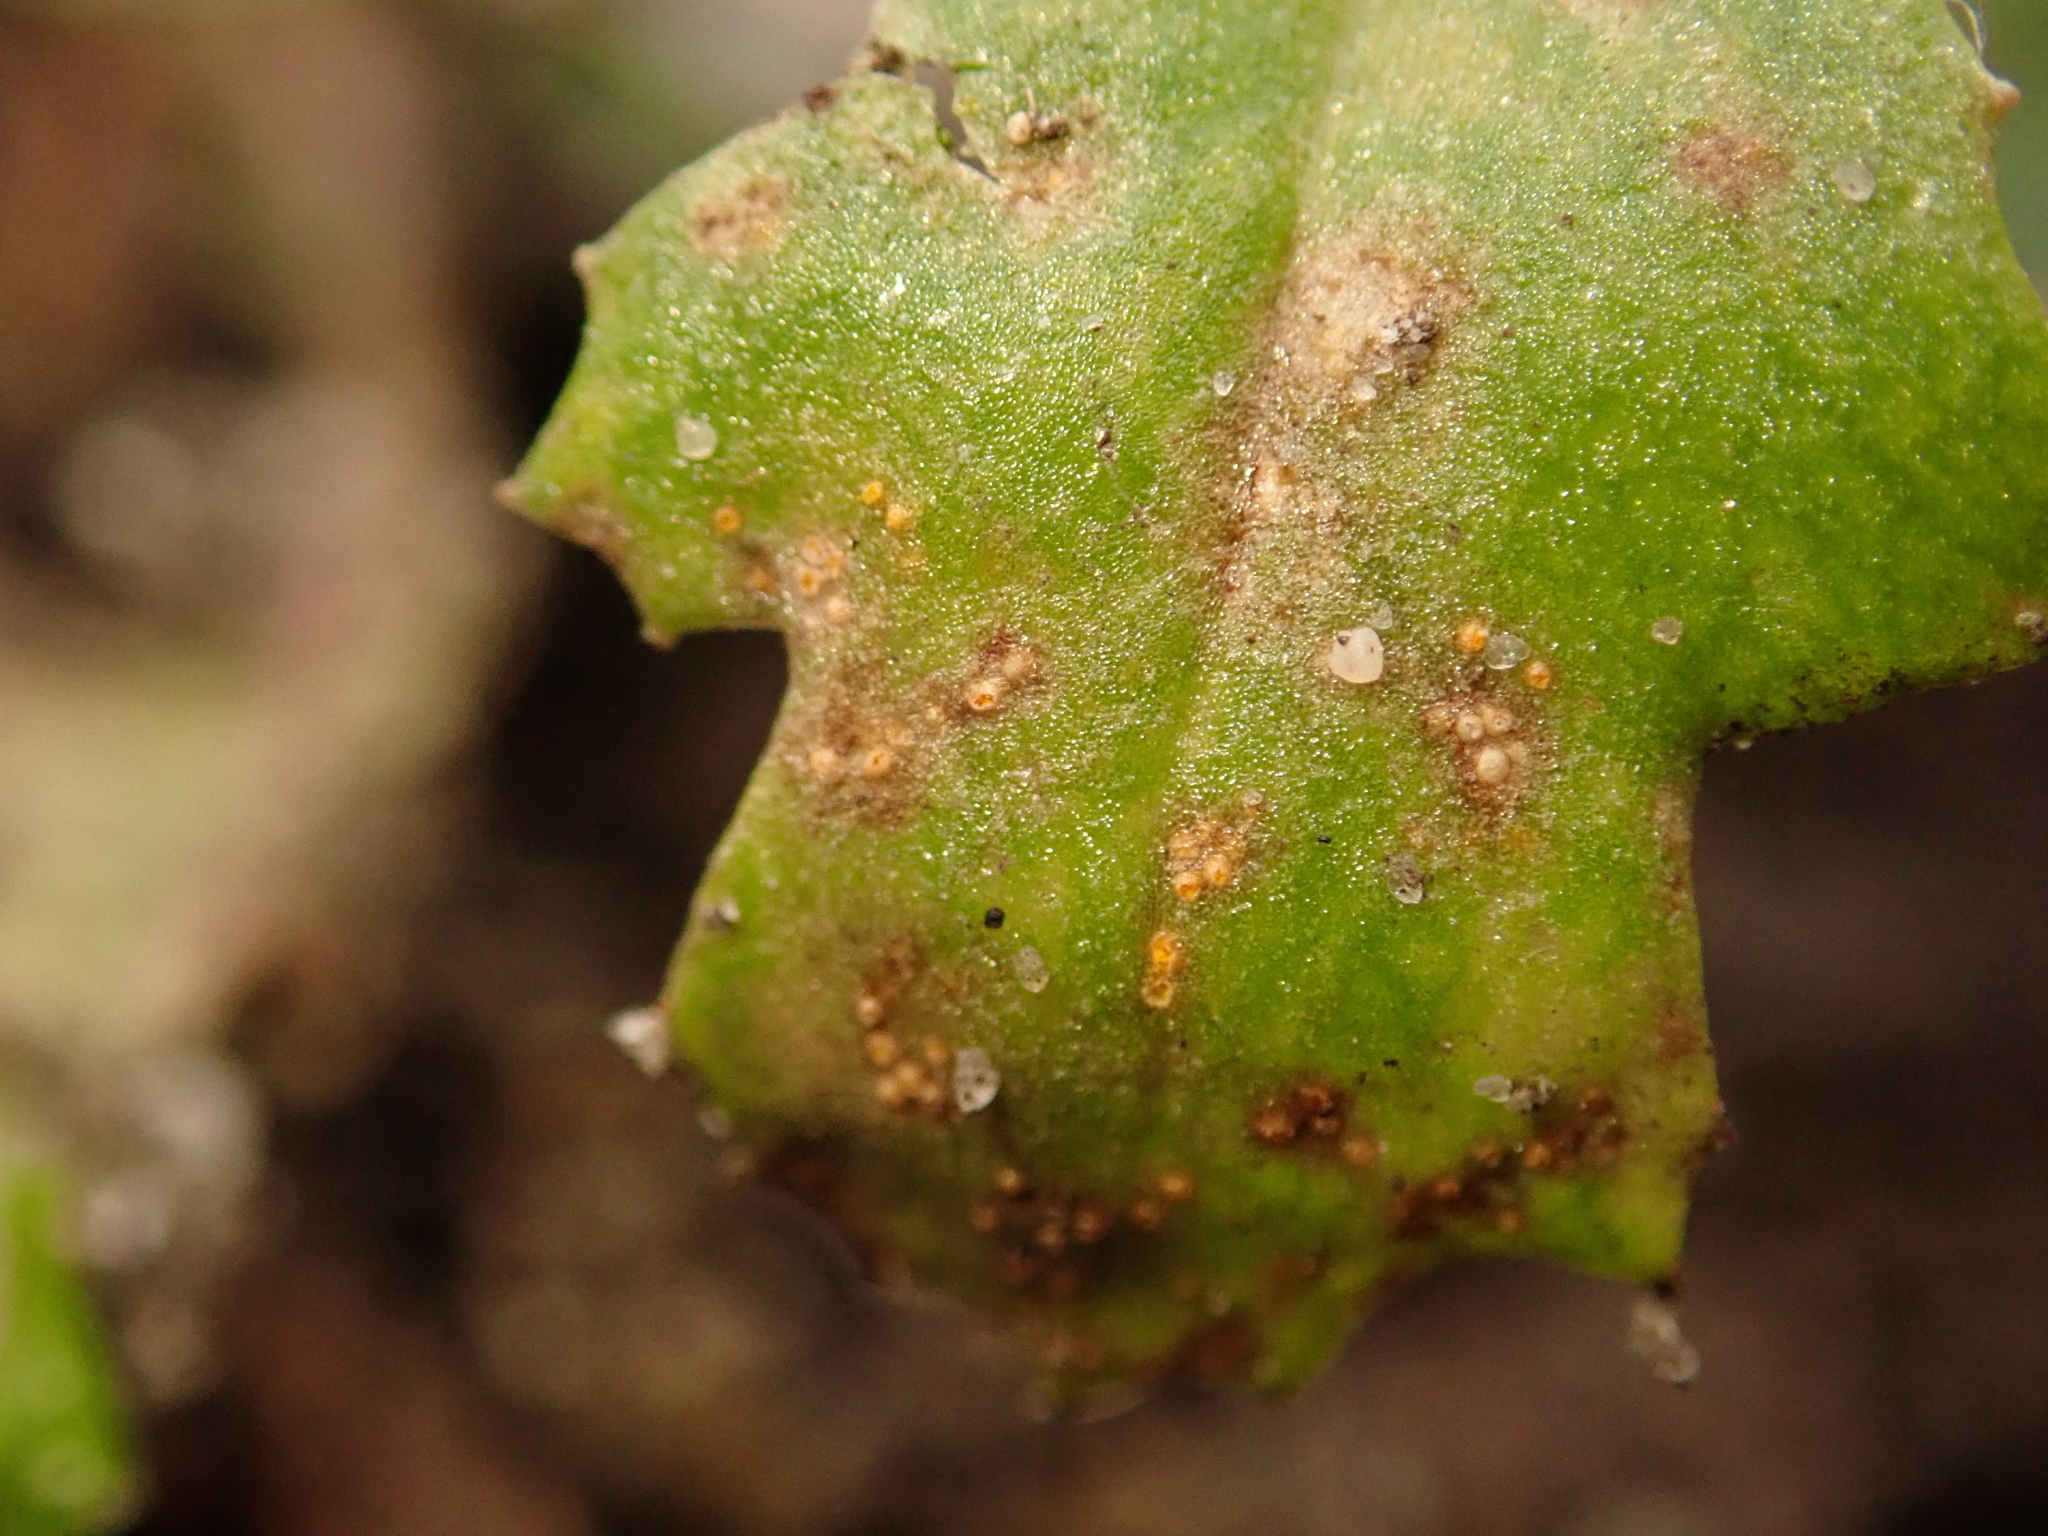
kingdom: Fungi
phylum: Basidiomycota
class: Pucciniomycetes
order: Pucciniales
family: Pucciniaceae
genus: Puccinia
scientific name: Puccinia lagenophorae
